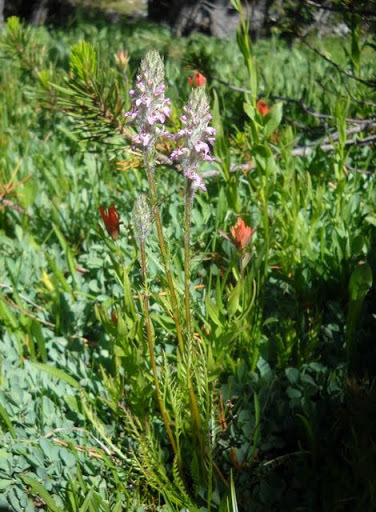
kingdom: Plantae
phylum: Tracheophyta
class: Magnoliopsida
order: Lamiales
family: Orobanchaceae
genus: Pedicularis
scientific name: Pedicularis attollens
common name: Slender pedicularis
